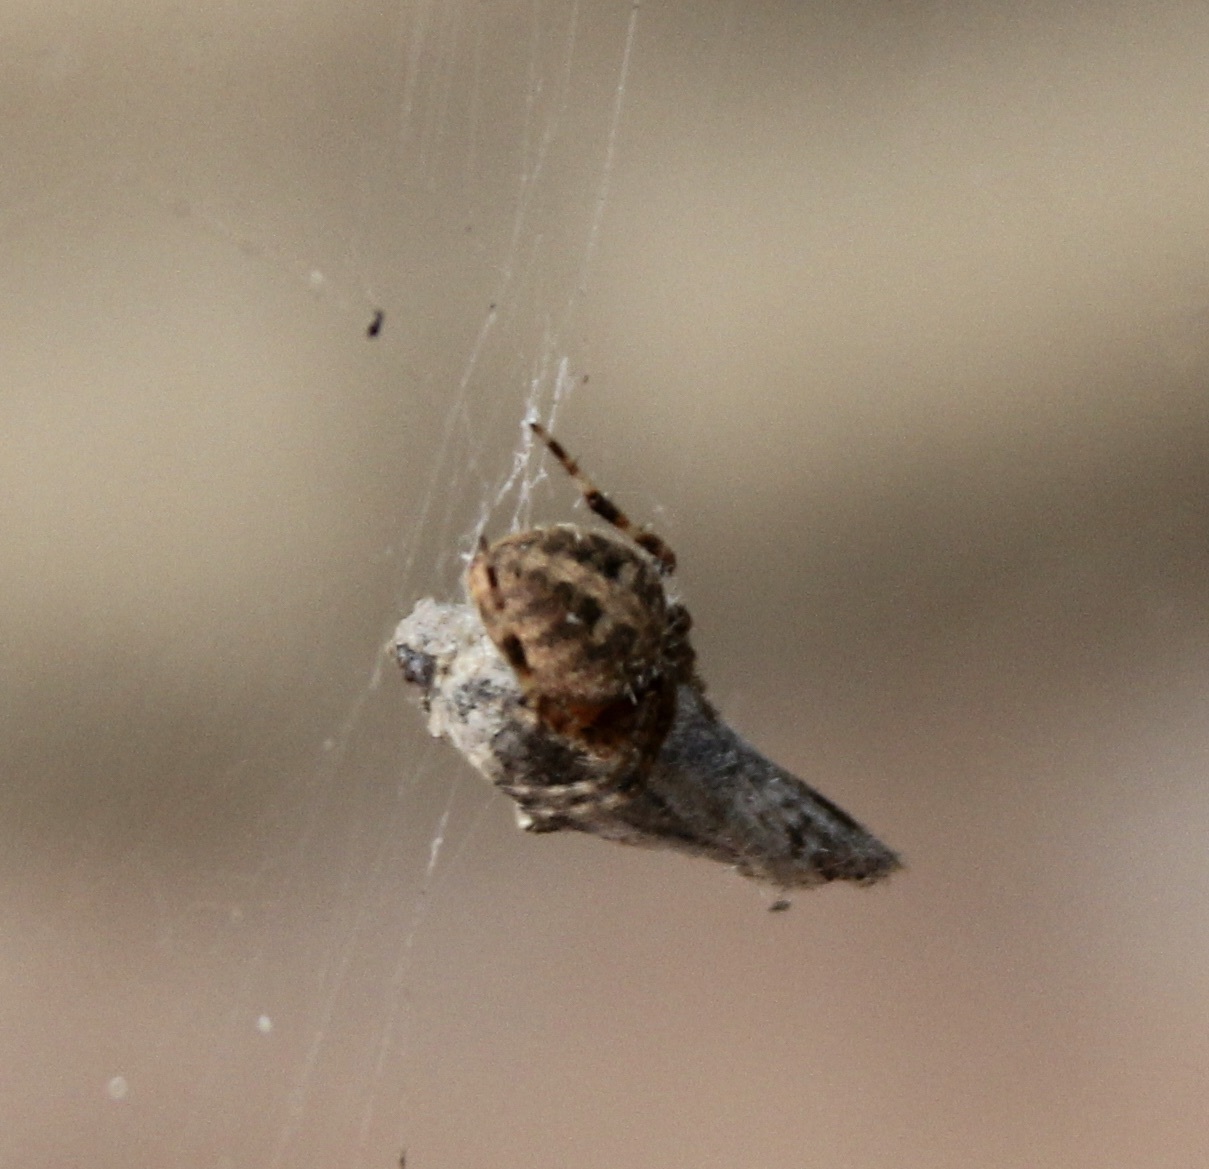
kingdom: Animalia
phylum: Arthropoda
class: Arachnida
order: Araneae
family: Araneidae
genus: Neoscona
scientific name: Neoscona crucifera
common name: Spotted orbweaver
